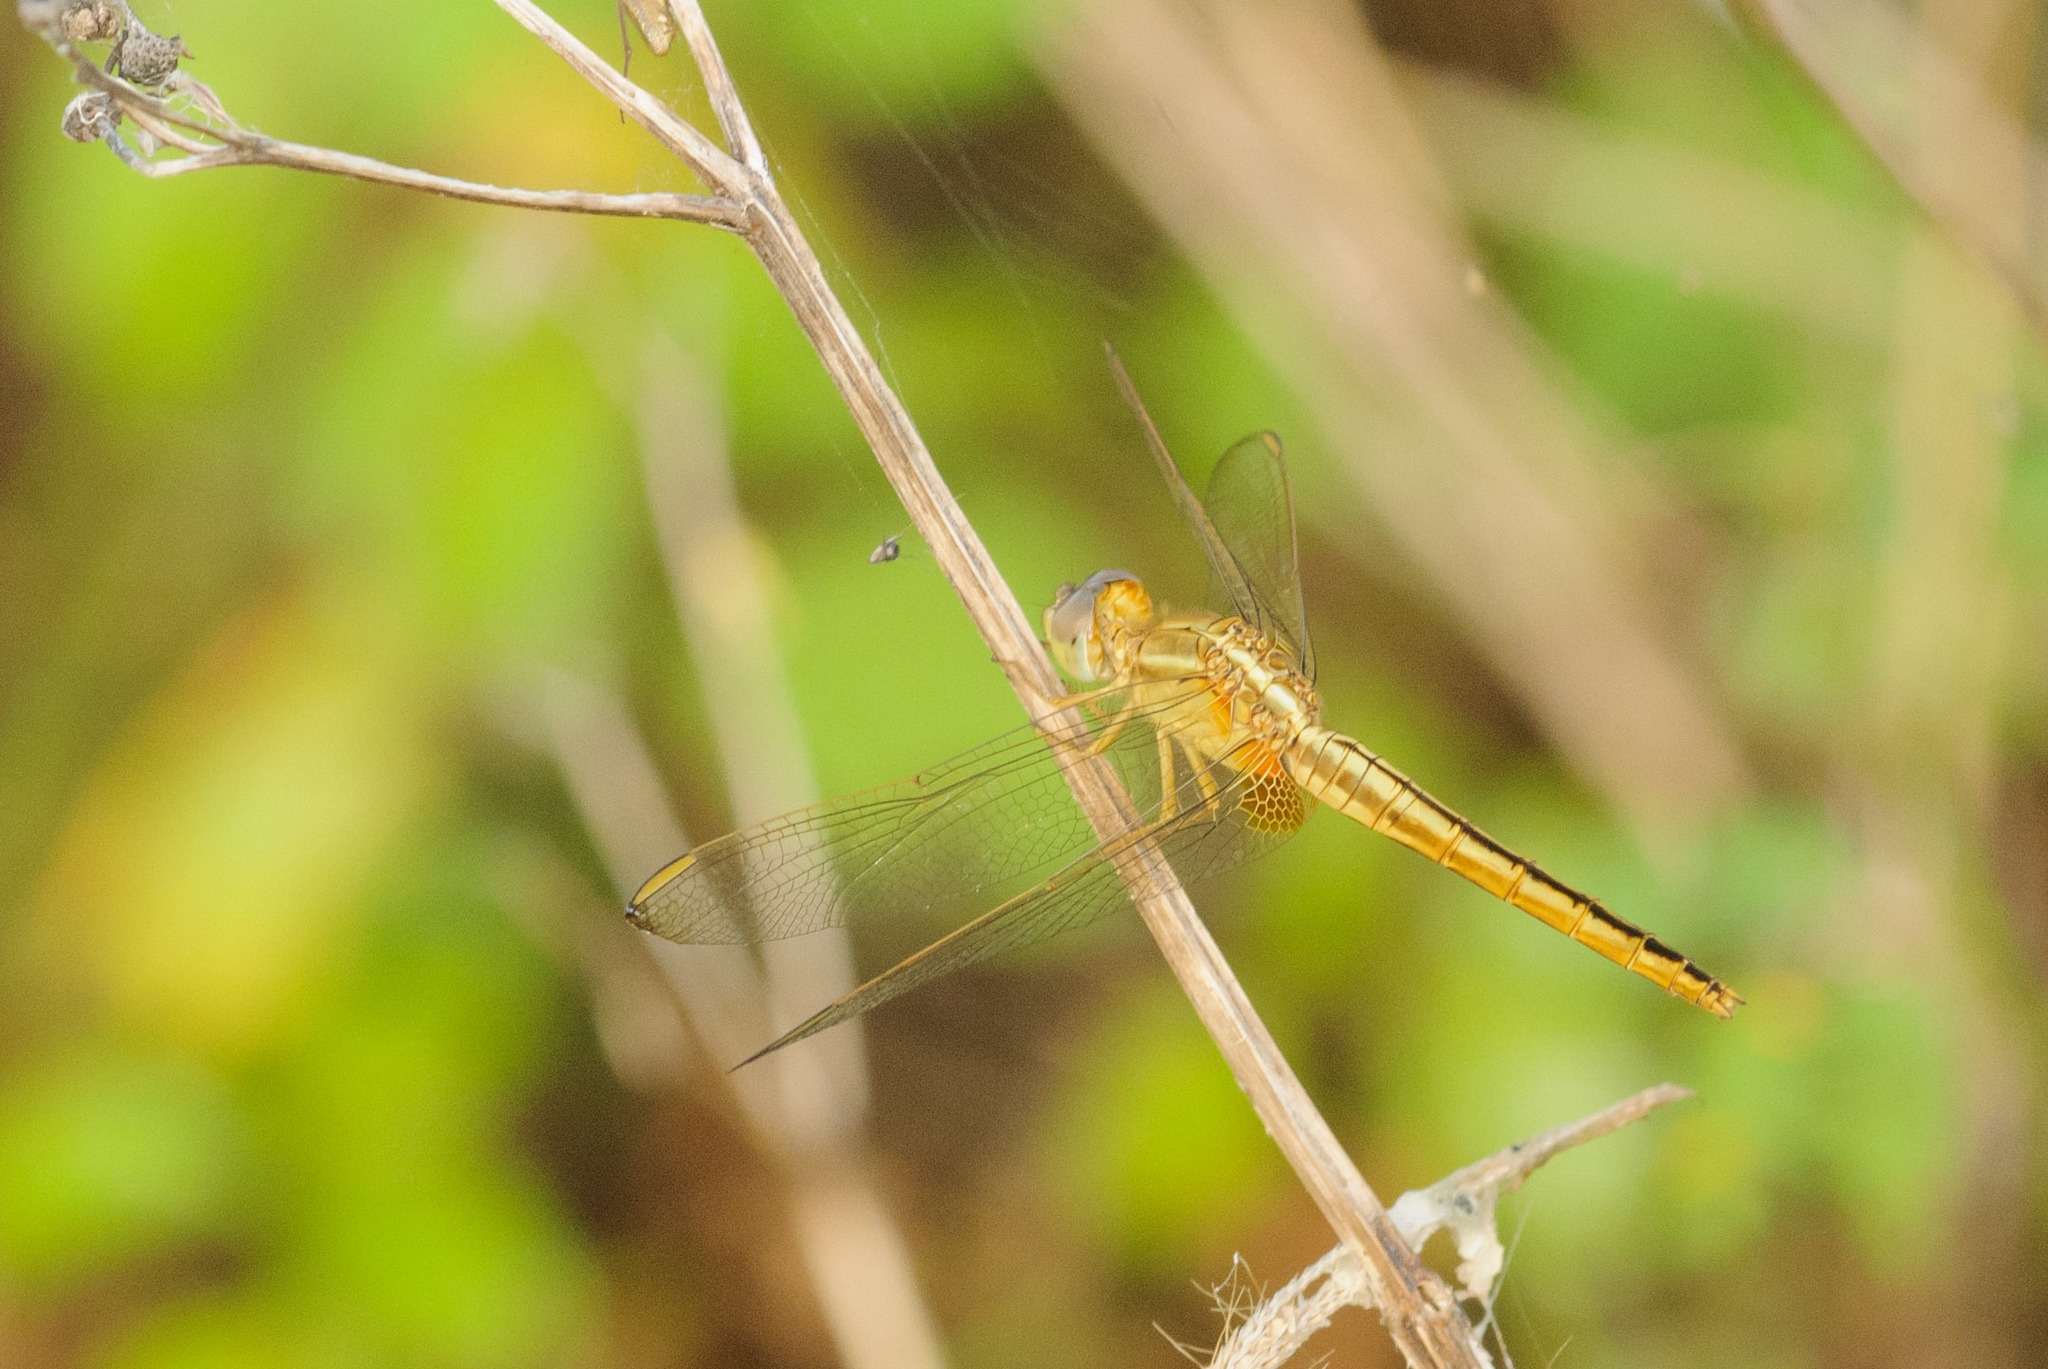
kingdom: Animalia
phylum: Arthropoda
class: Insecta
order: Odonata
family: Libellulidae
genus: Crocothemis
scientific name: Crocothemis servilia
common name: Scarlet skimmer
